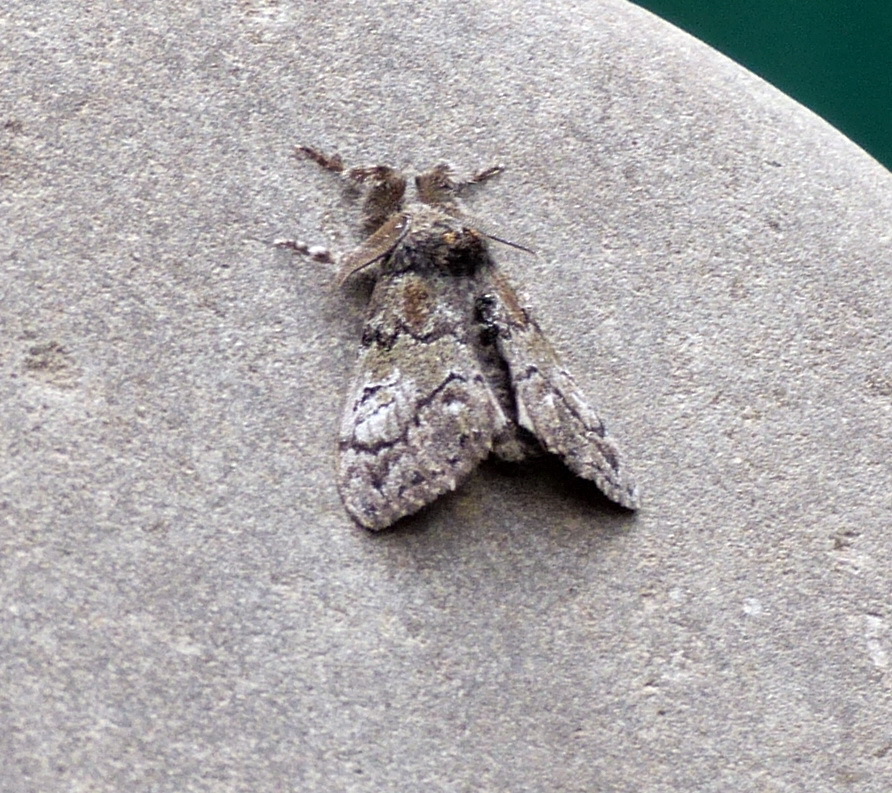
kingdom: Animalia
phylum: Arthropoda
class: Insecta
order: Lepidoptera
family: Erebidae
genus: Dasychira
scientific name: Dasychira plagiata
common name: Northern pine tussock moth
